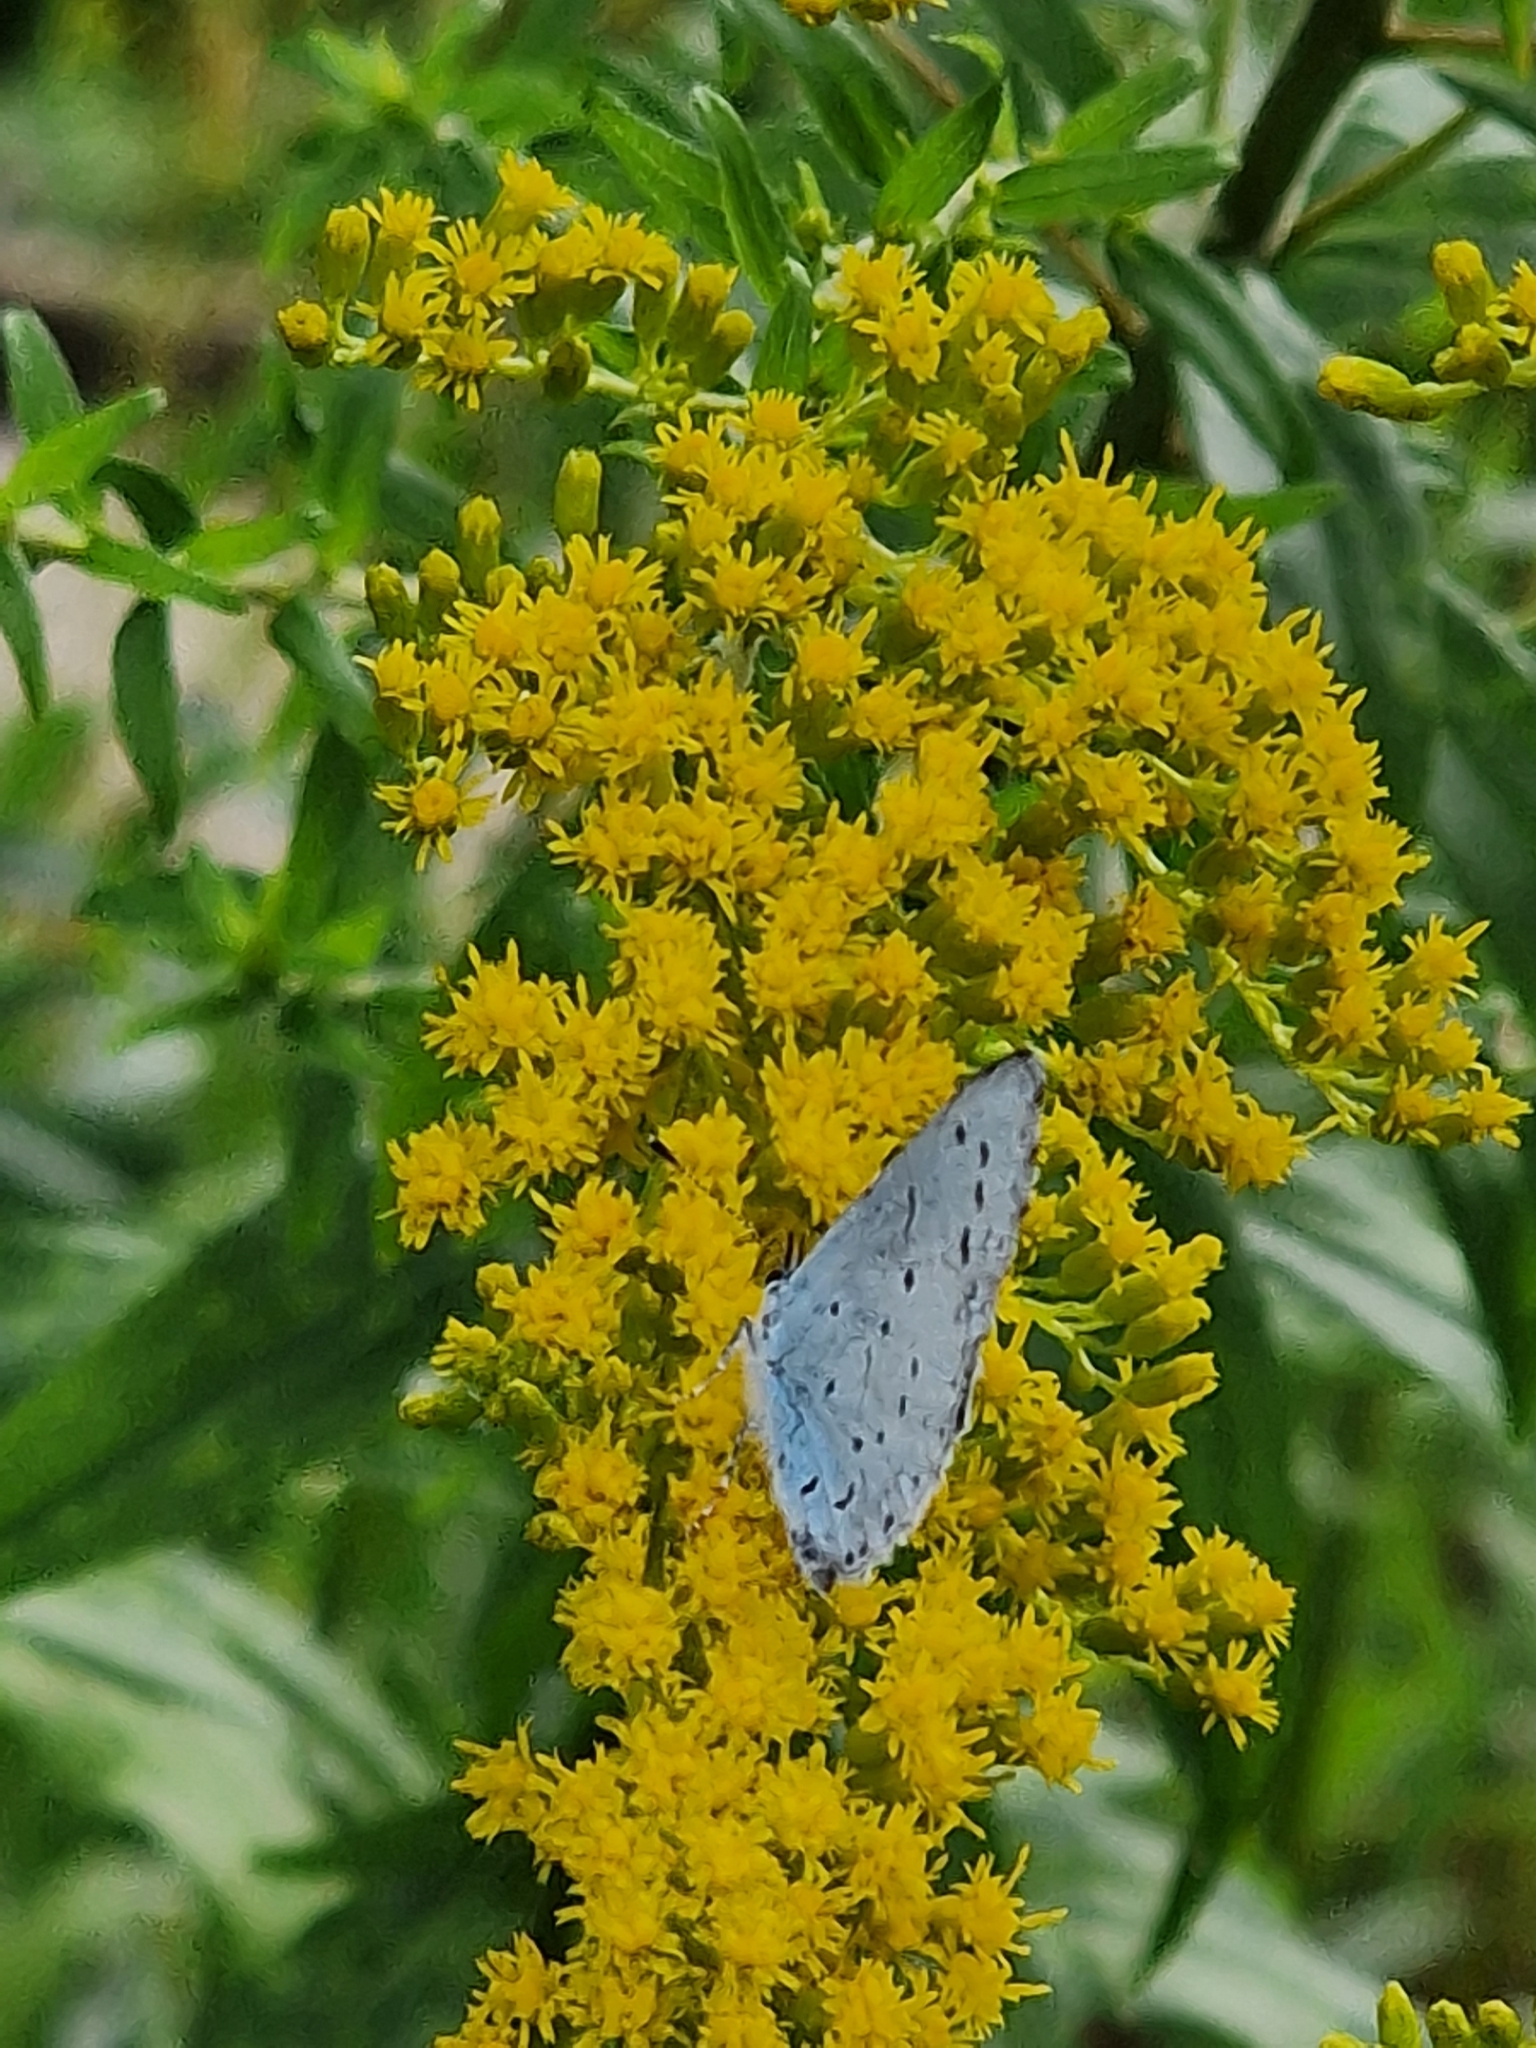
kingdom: Animalia
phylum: Arthropoda
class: Insecta
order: Lepidoptera
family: Lycaenidae
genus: Celastrina
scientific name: Celastrina argiolus
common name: Holly blue
